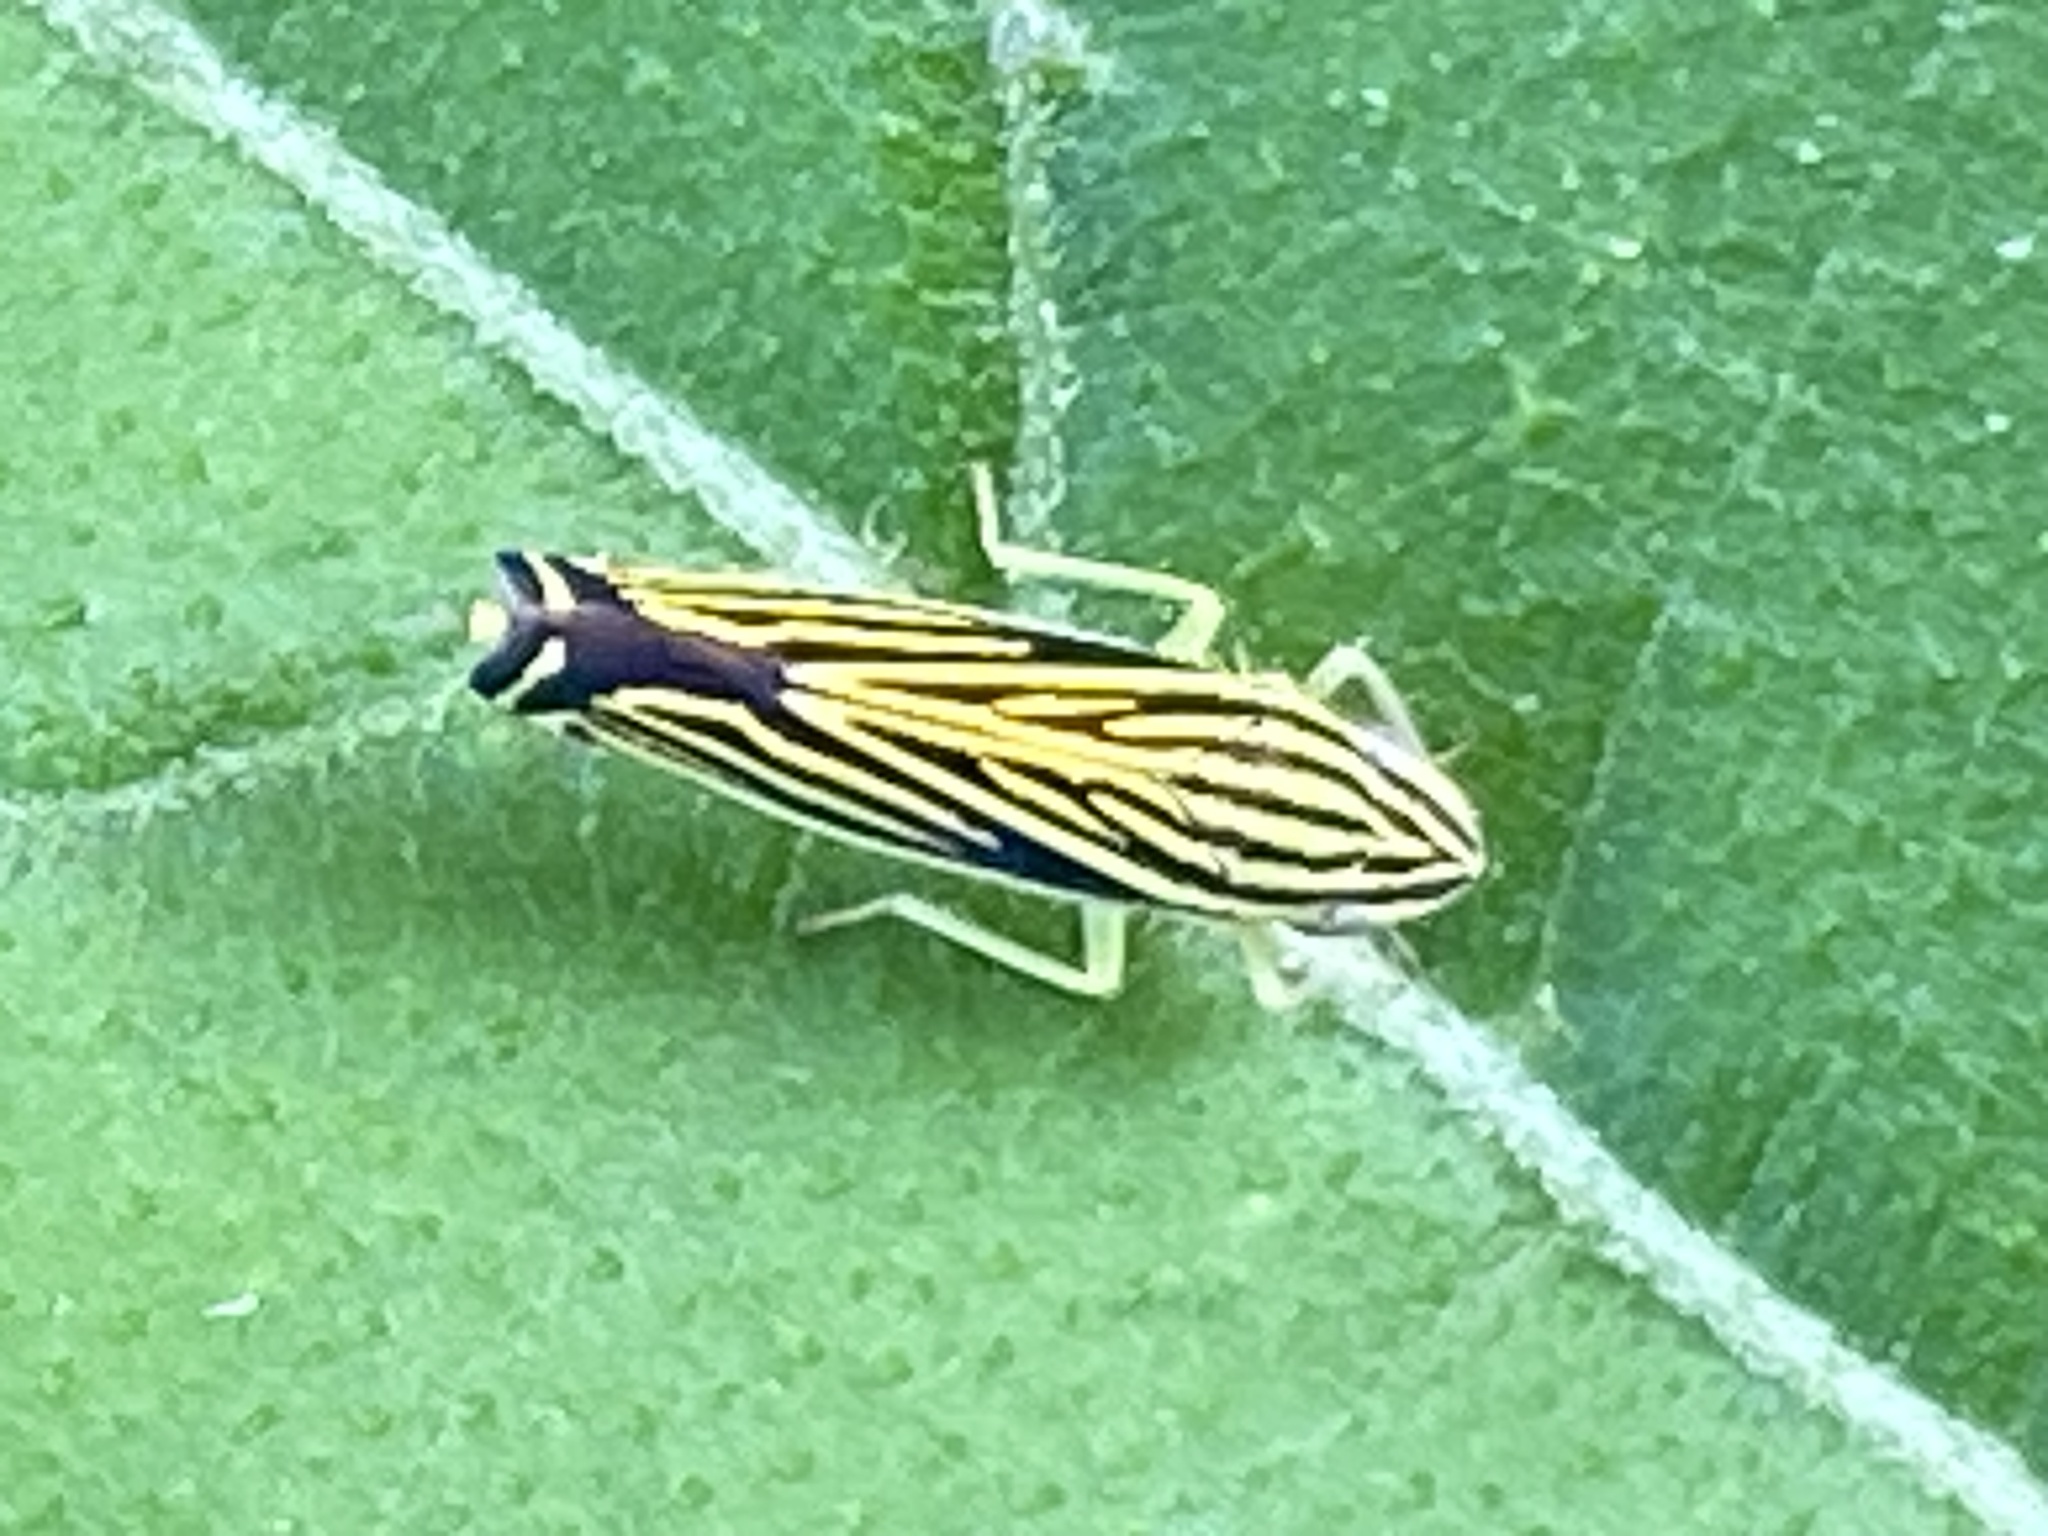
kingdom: Animalia
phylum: Arthropoda
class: Insecta
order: Hemiptera
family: Cicadellidae
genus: Sibovia
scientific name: Sibovia occatoria
